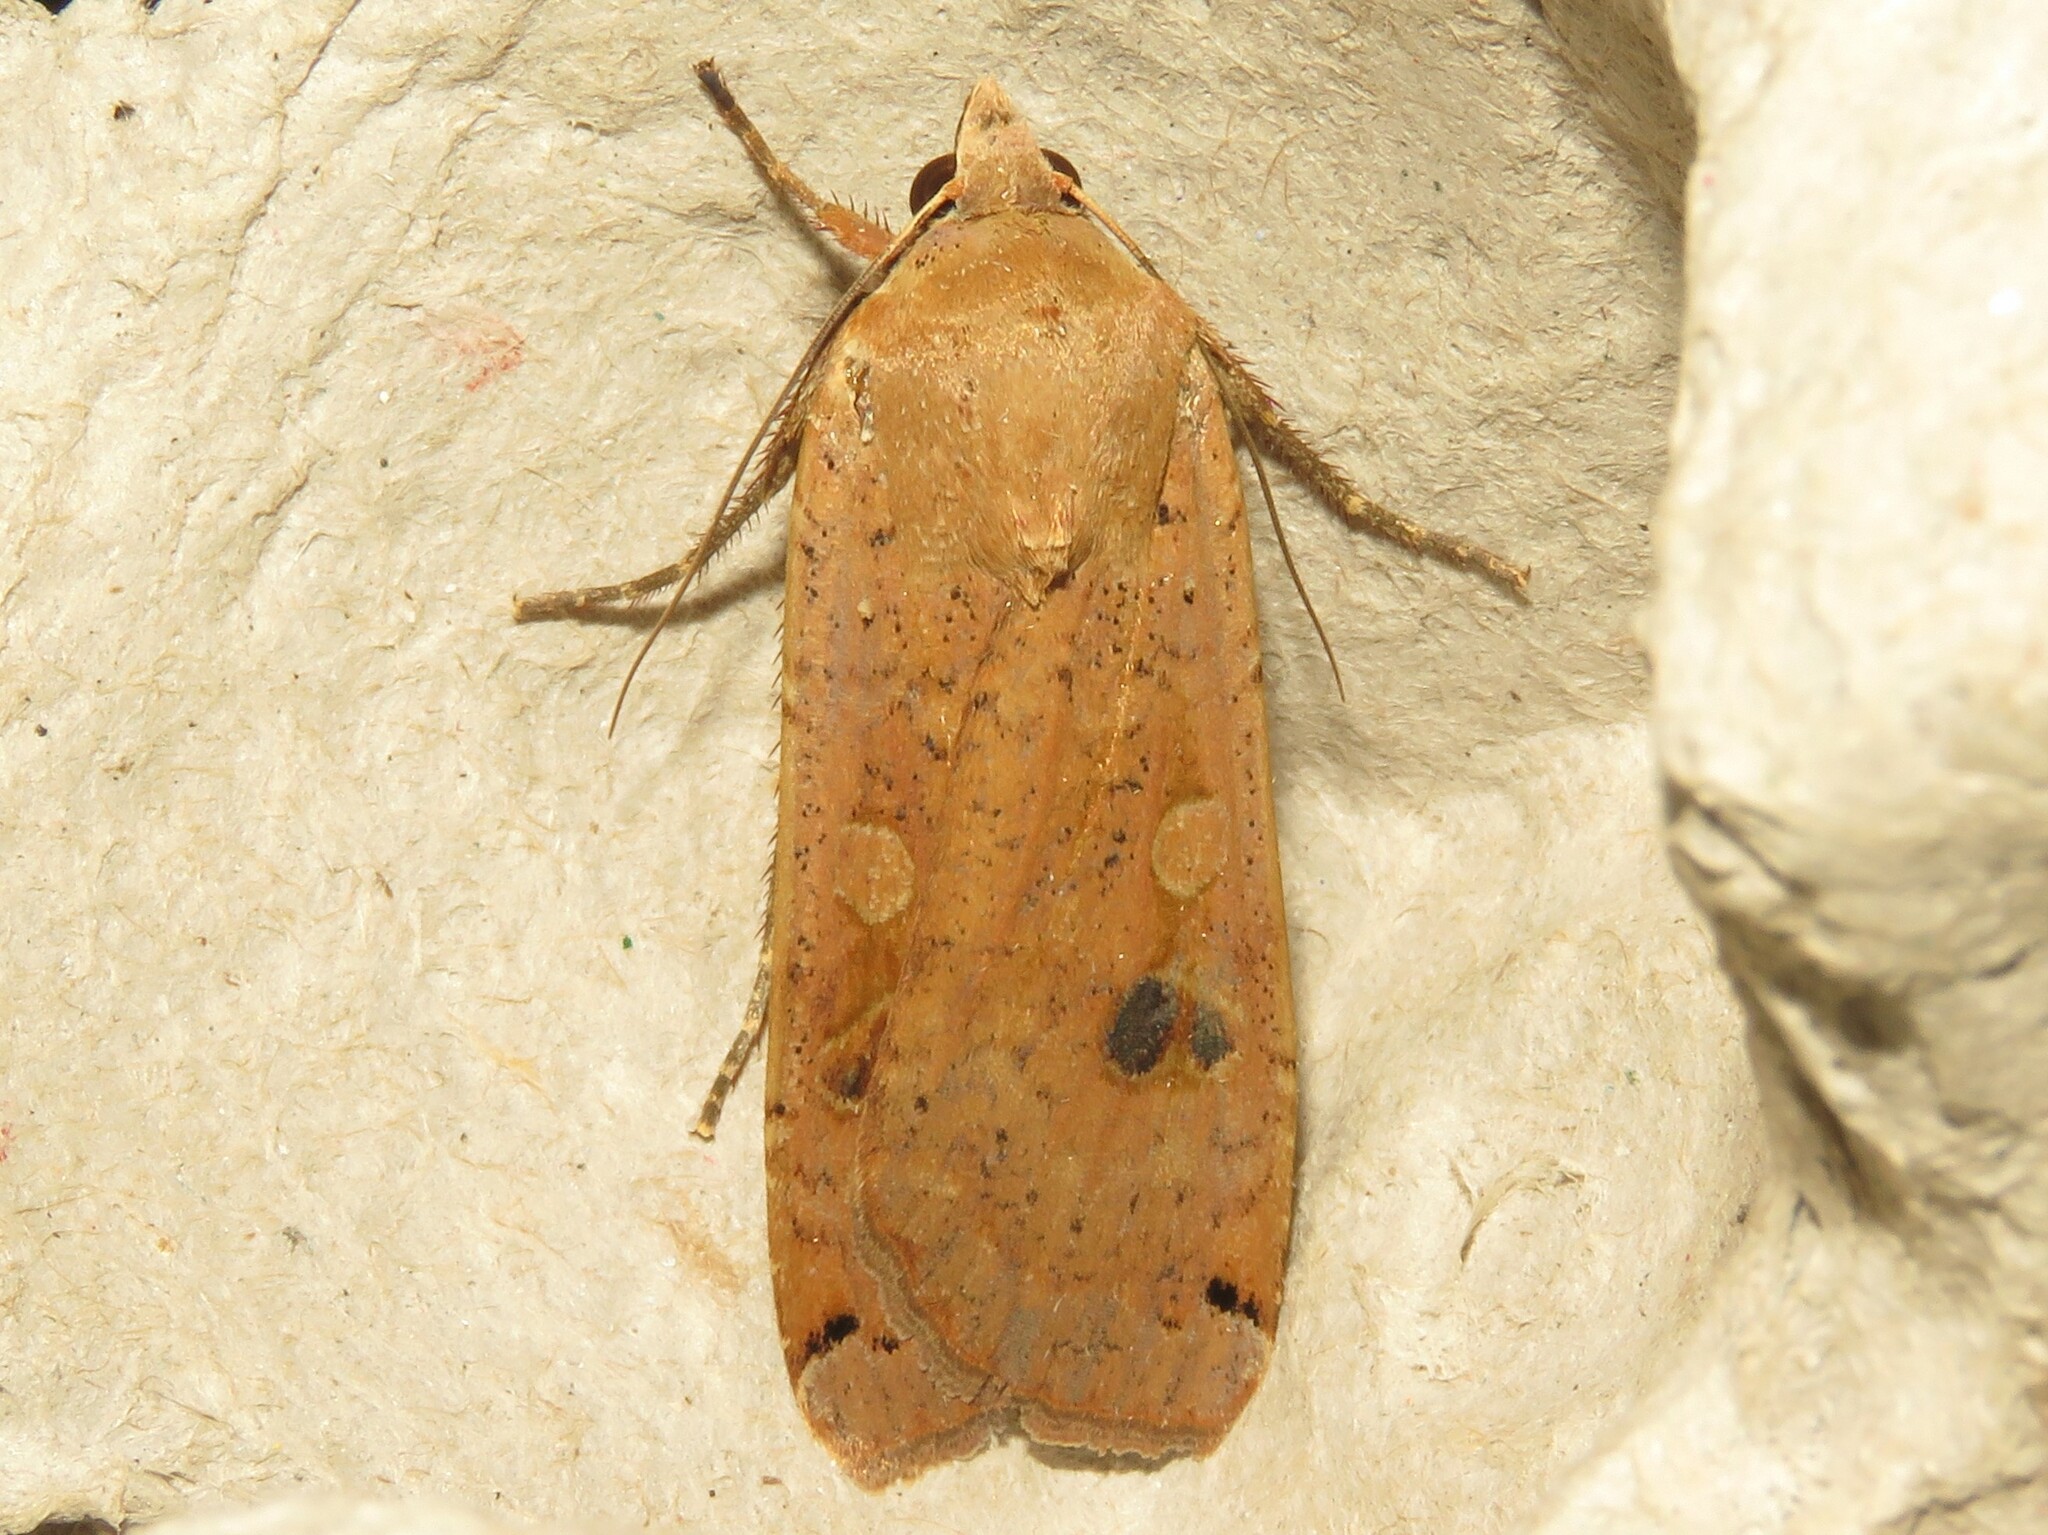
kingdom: Animalia
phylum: Arthropoda
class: Insecta
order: Lepidoptera
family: Noctuidae
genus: Noctua
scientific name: Noctua pronuba
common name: Large yellow underwing
